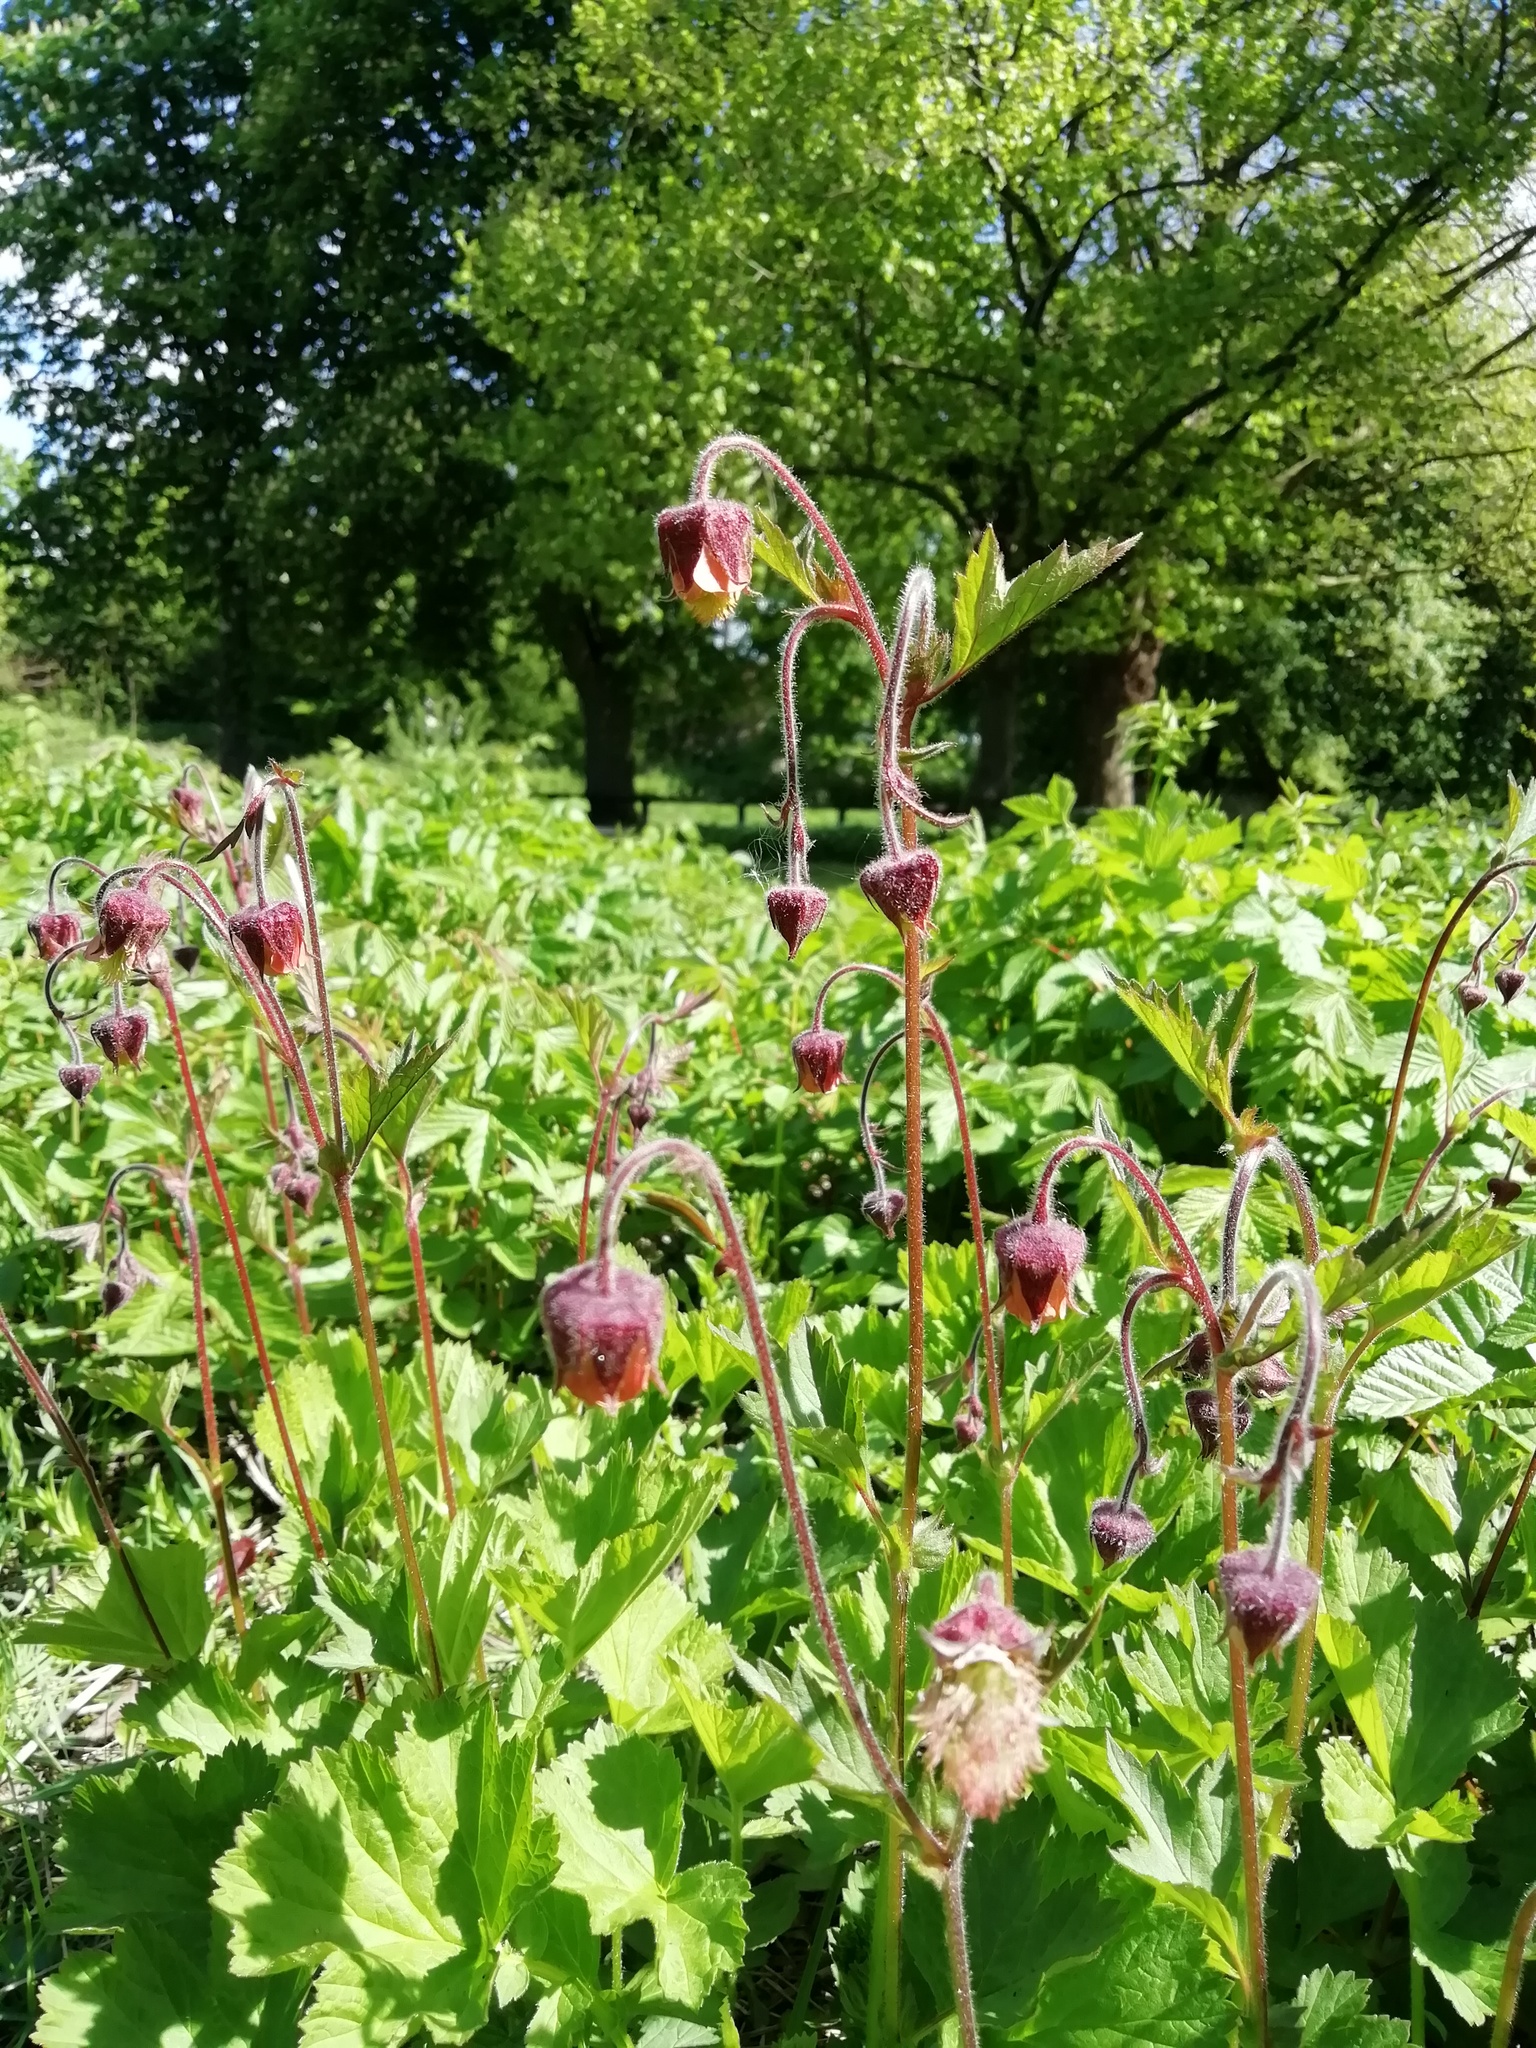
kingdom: Plantae
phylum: Tracheophyta
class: Magnoliopsida
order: Rosales
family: Rosaceae
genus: Geum
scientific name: Geum rivale
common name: Water avens
